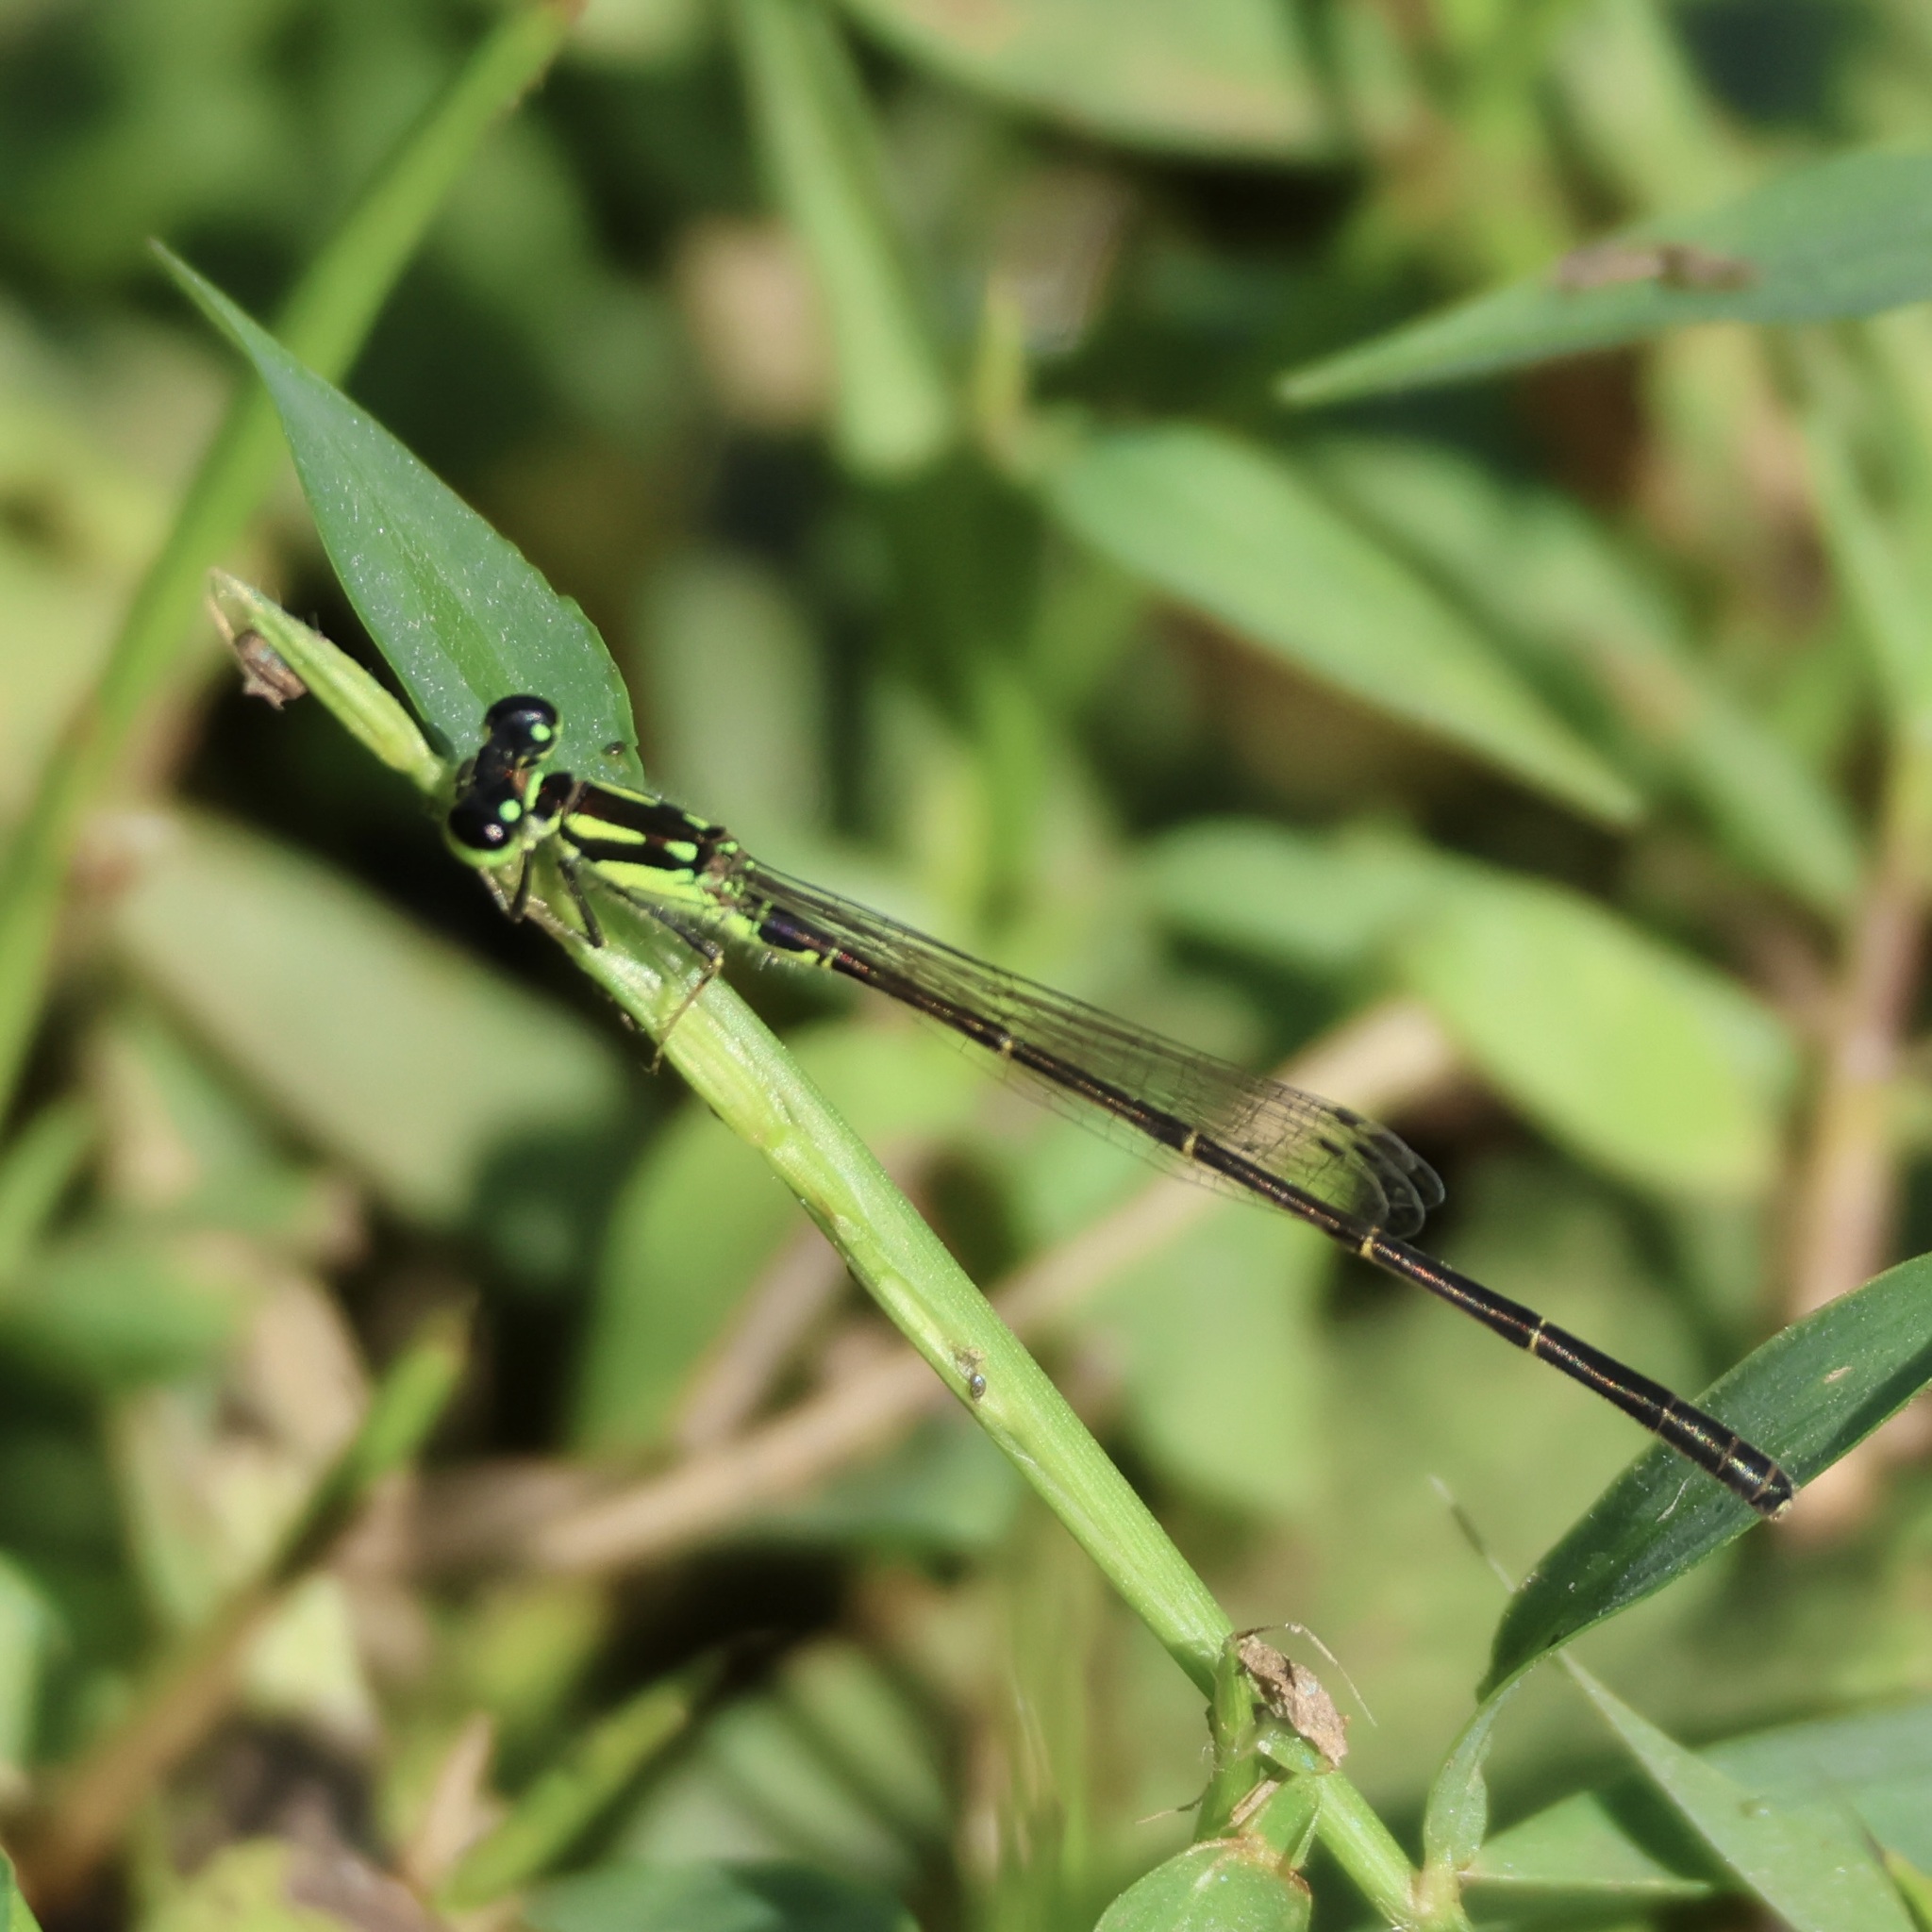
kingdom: Animalia
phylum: Arthropoda
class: Insecta
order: Odonata
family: Coenagrionidae
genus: Ischnura
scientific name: Ischnura posita
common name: Fragile forktail
